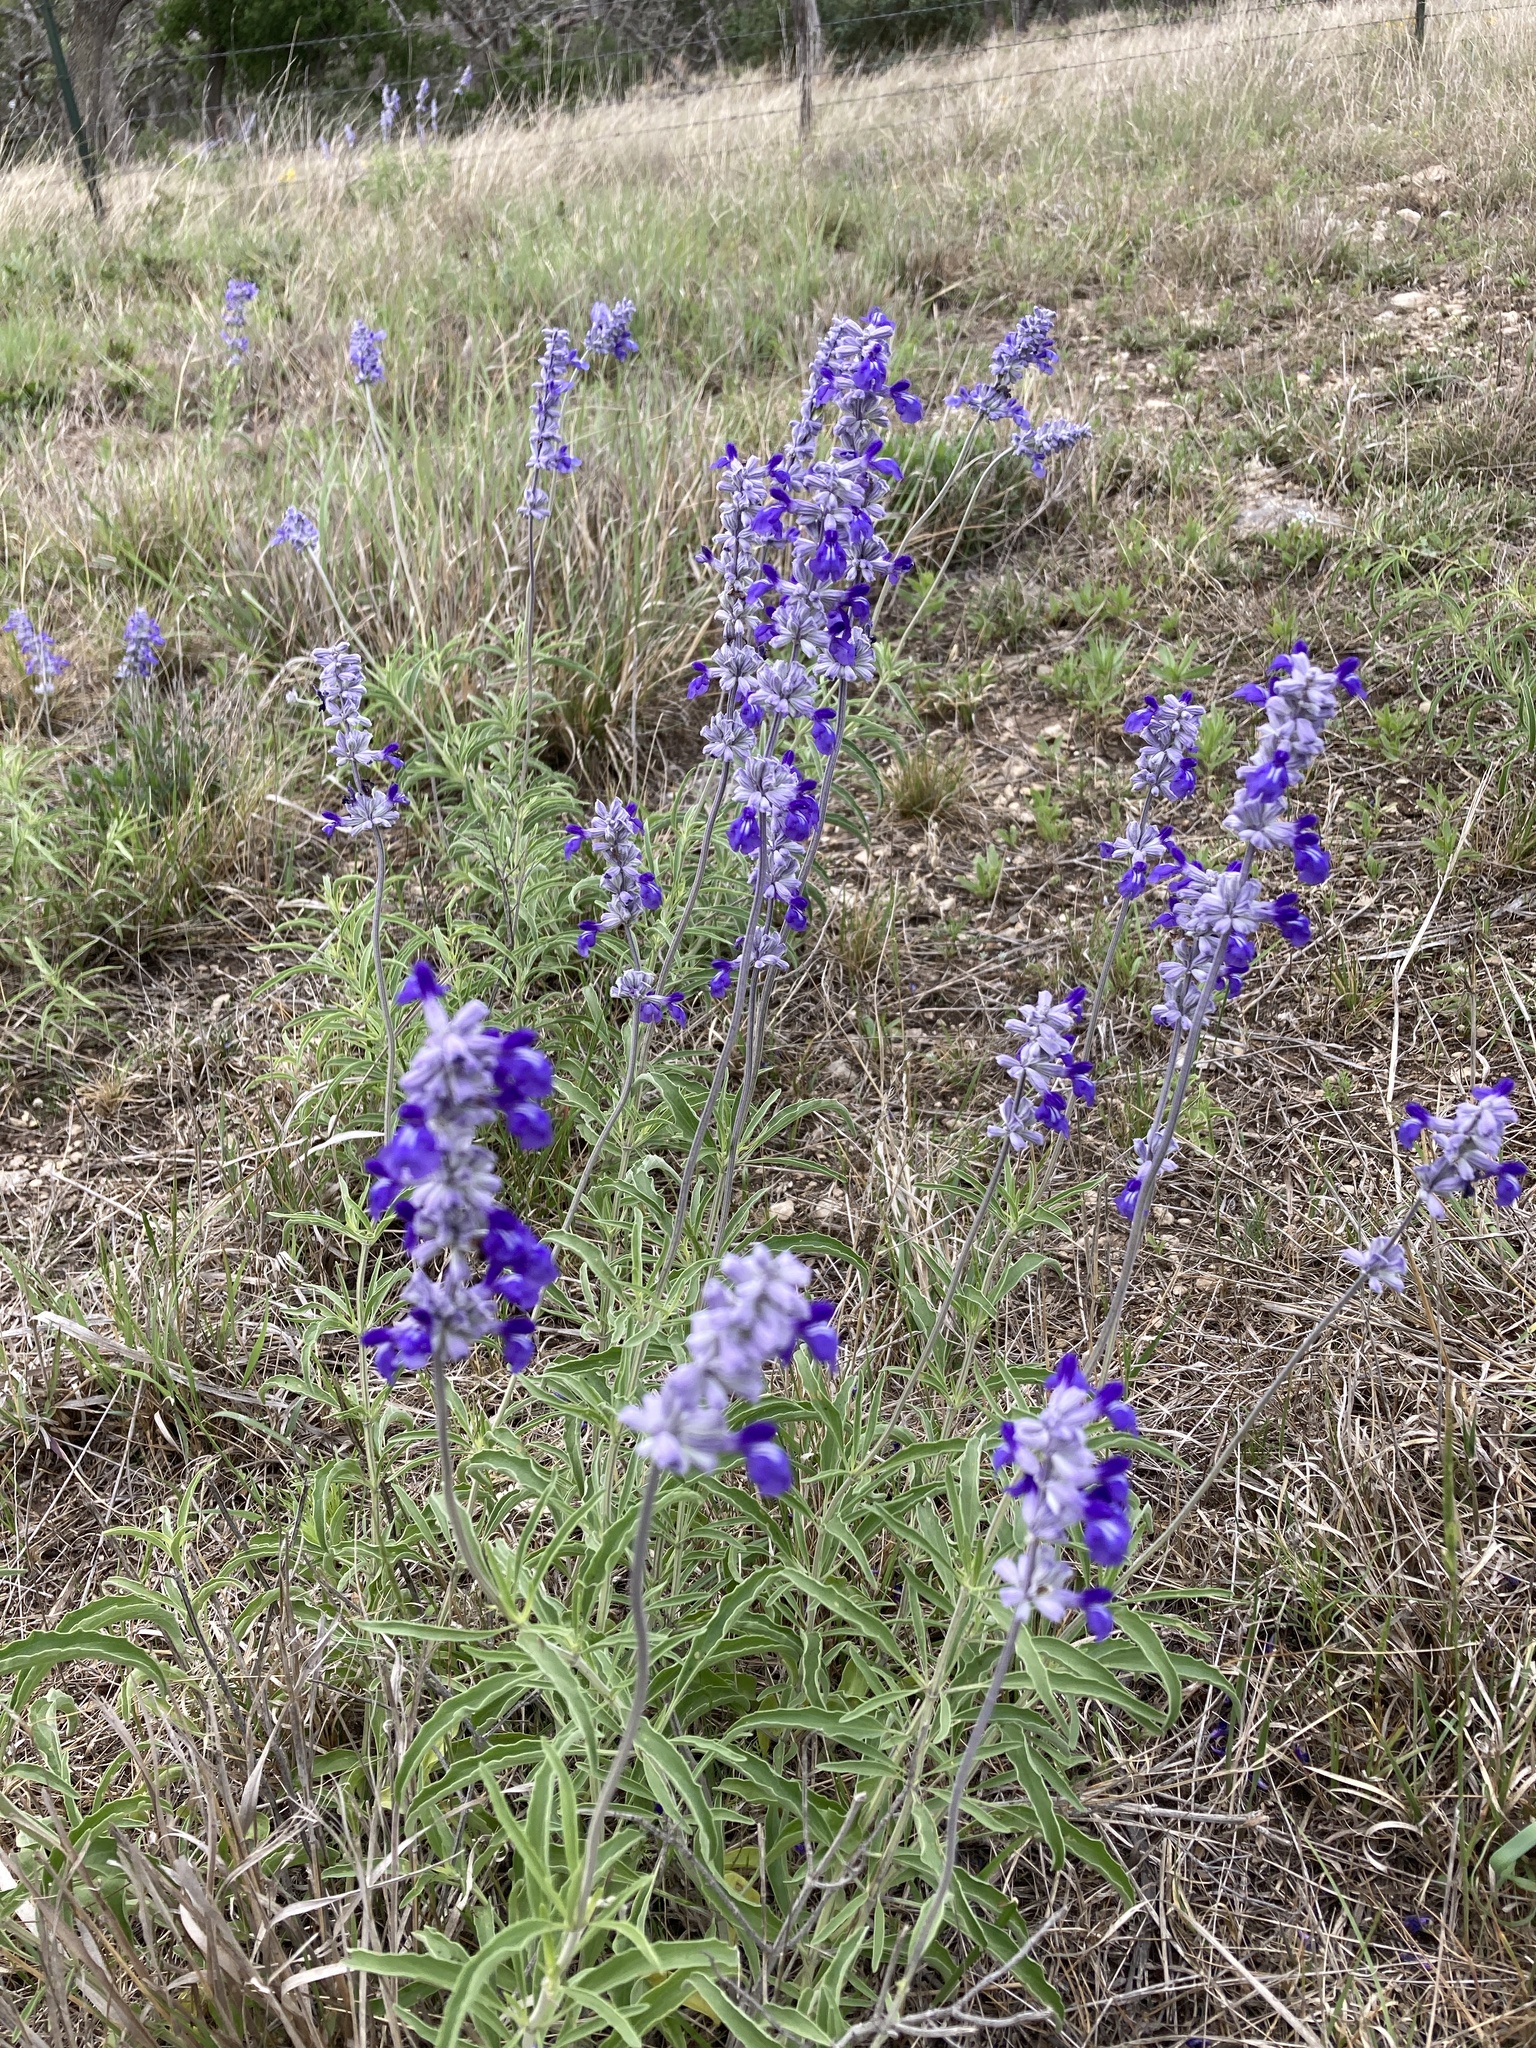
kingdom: Plantae
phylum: Tracheophyta
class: Magnoliopsida
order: Lamiales
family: Lamiaceae
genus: Salvia
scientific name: Salvia farinacea
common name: Mealy sage
